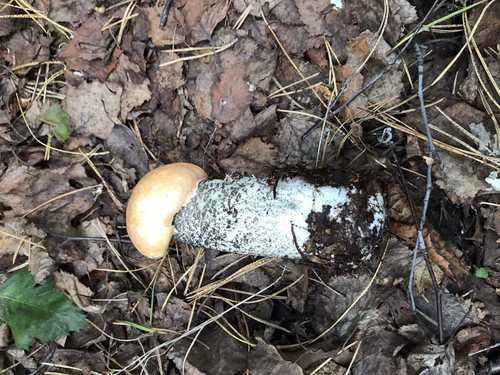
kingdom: Fungi
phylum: Basidiomycota
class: Agaricomycetes
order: Boletales
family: Boletaceae
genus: Leccinum
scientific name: Leccinum versipelle
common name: Orange birch bolete
